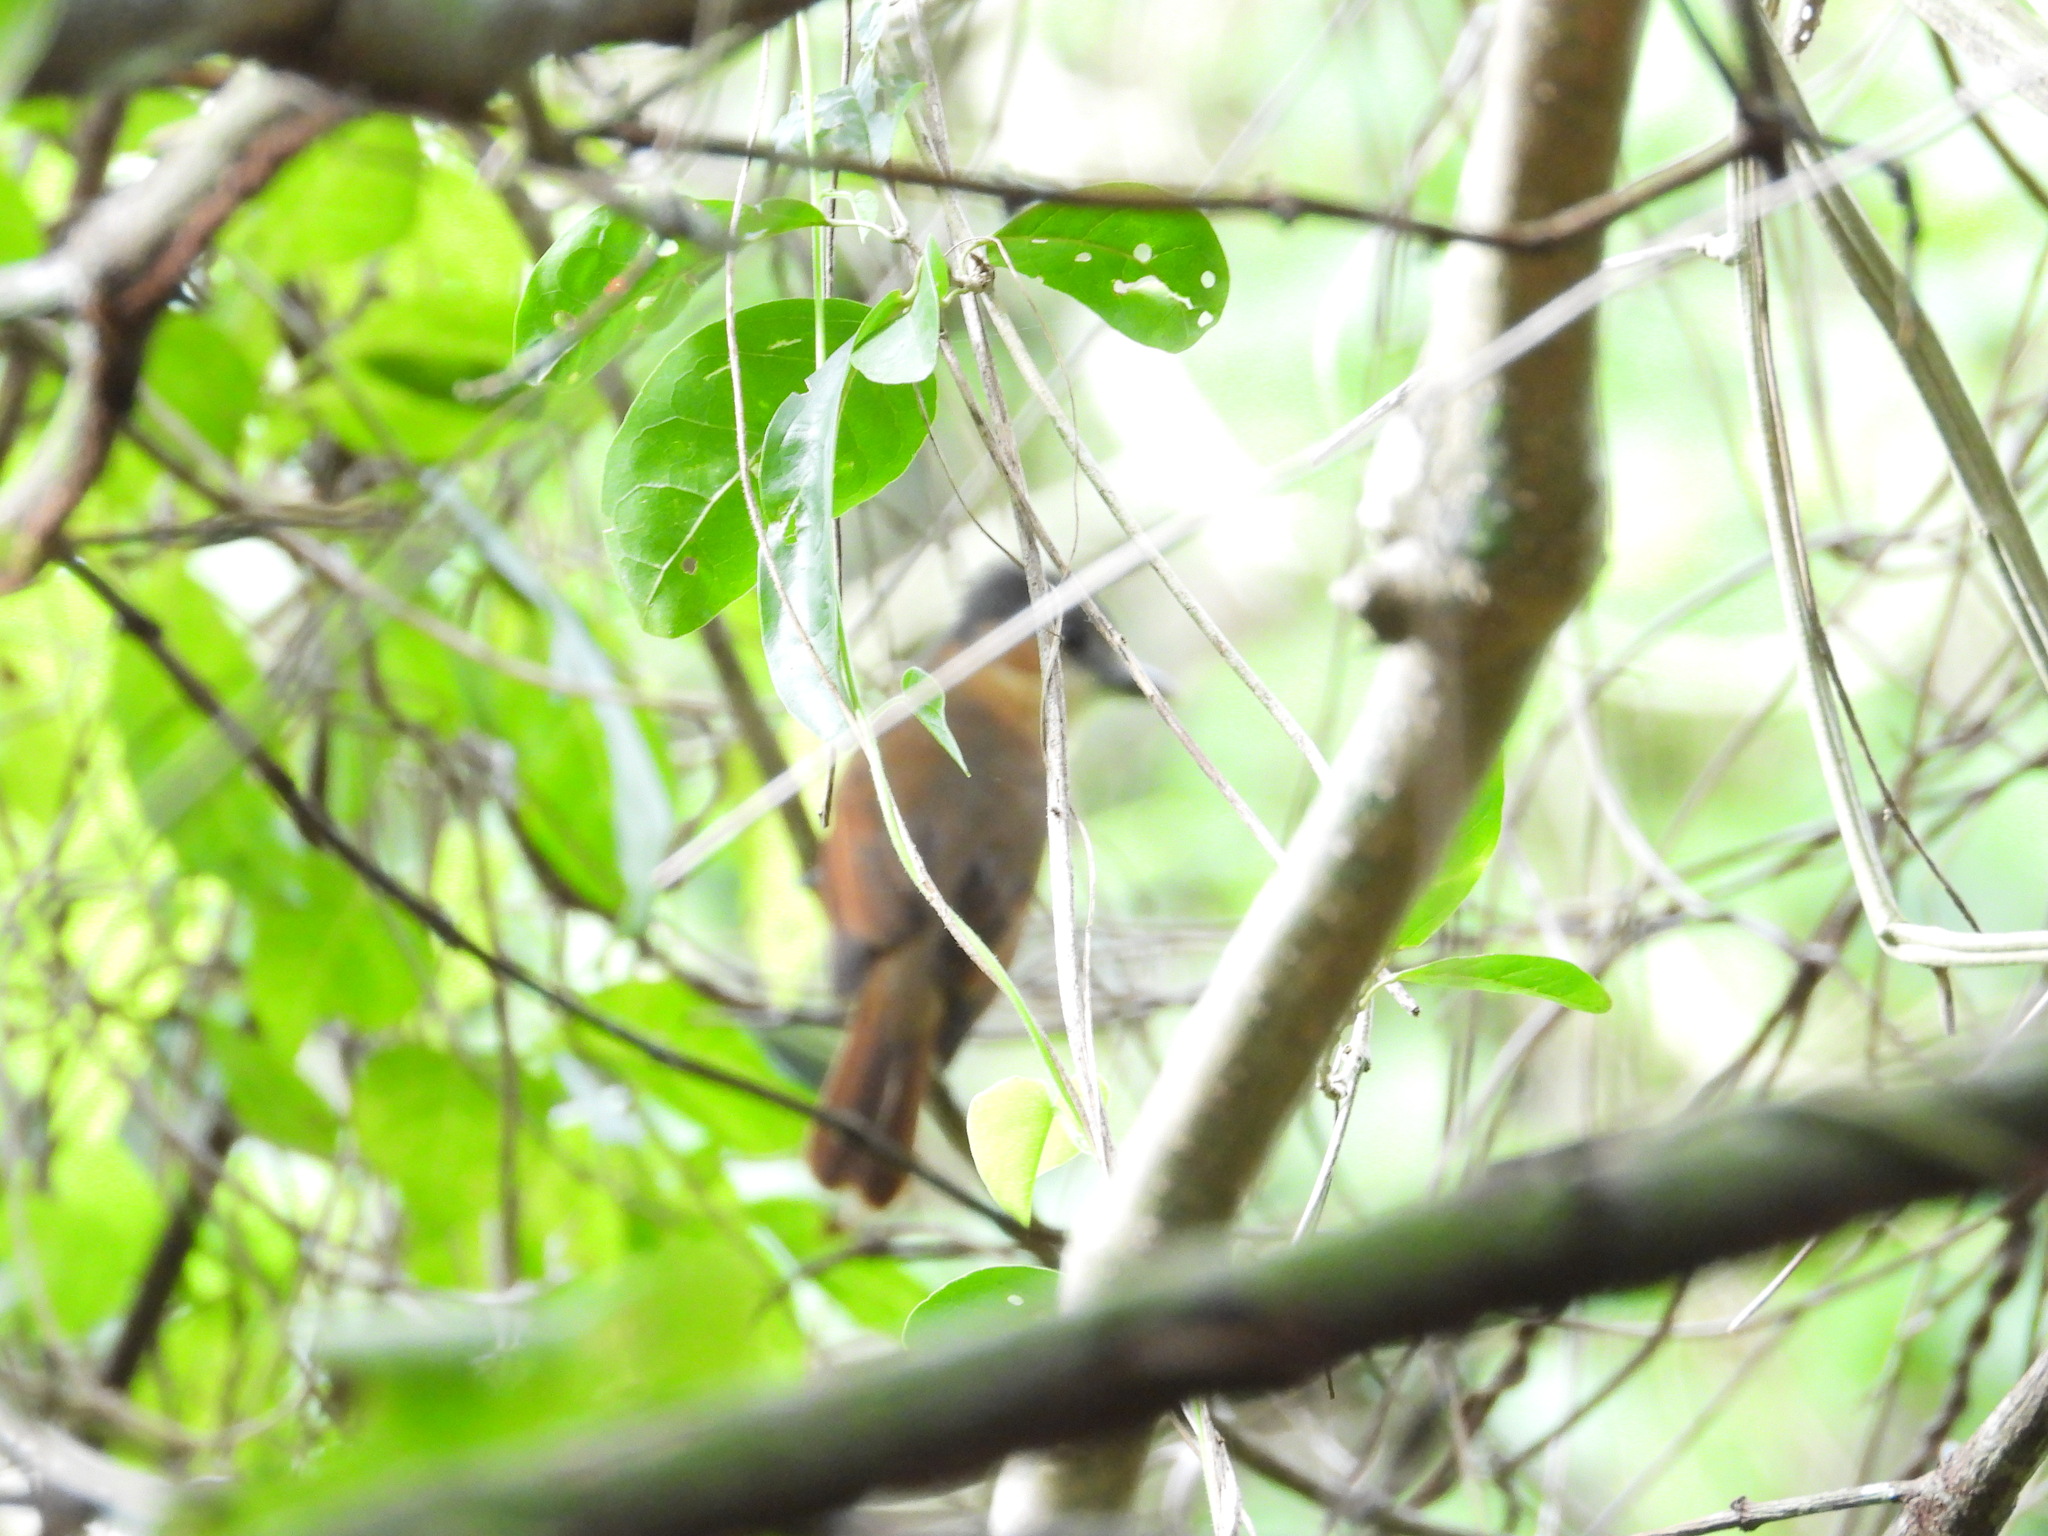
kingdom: Animalia
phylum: Chordata
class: Aves
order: Passeriformes
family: Cotingidae
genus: Pachyramphus
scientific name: Pachyramphus aglaiae
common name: Rose-throated becard
